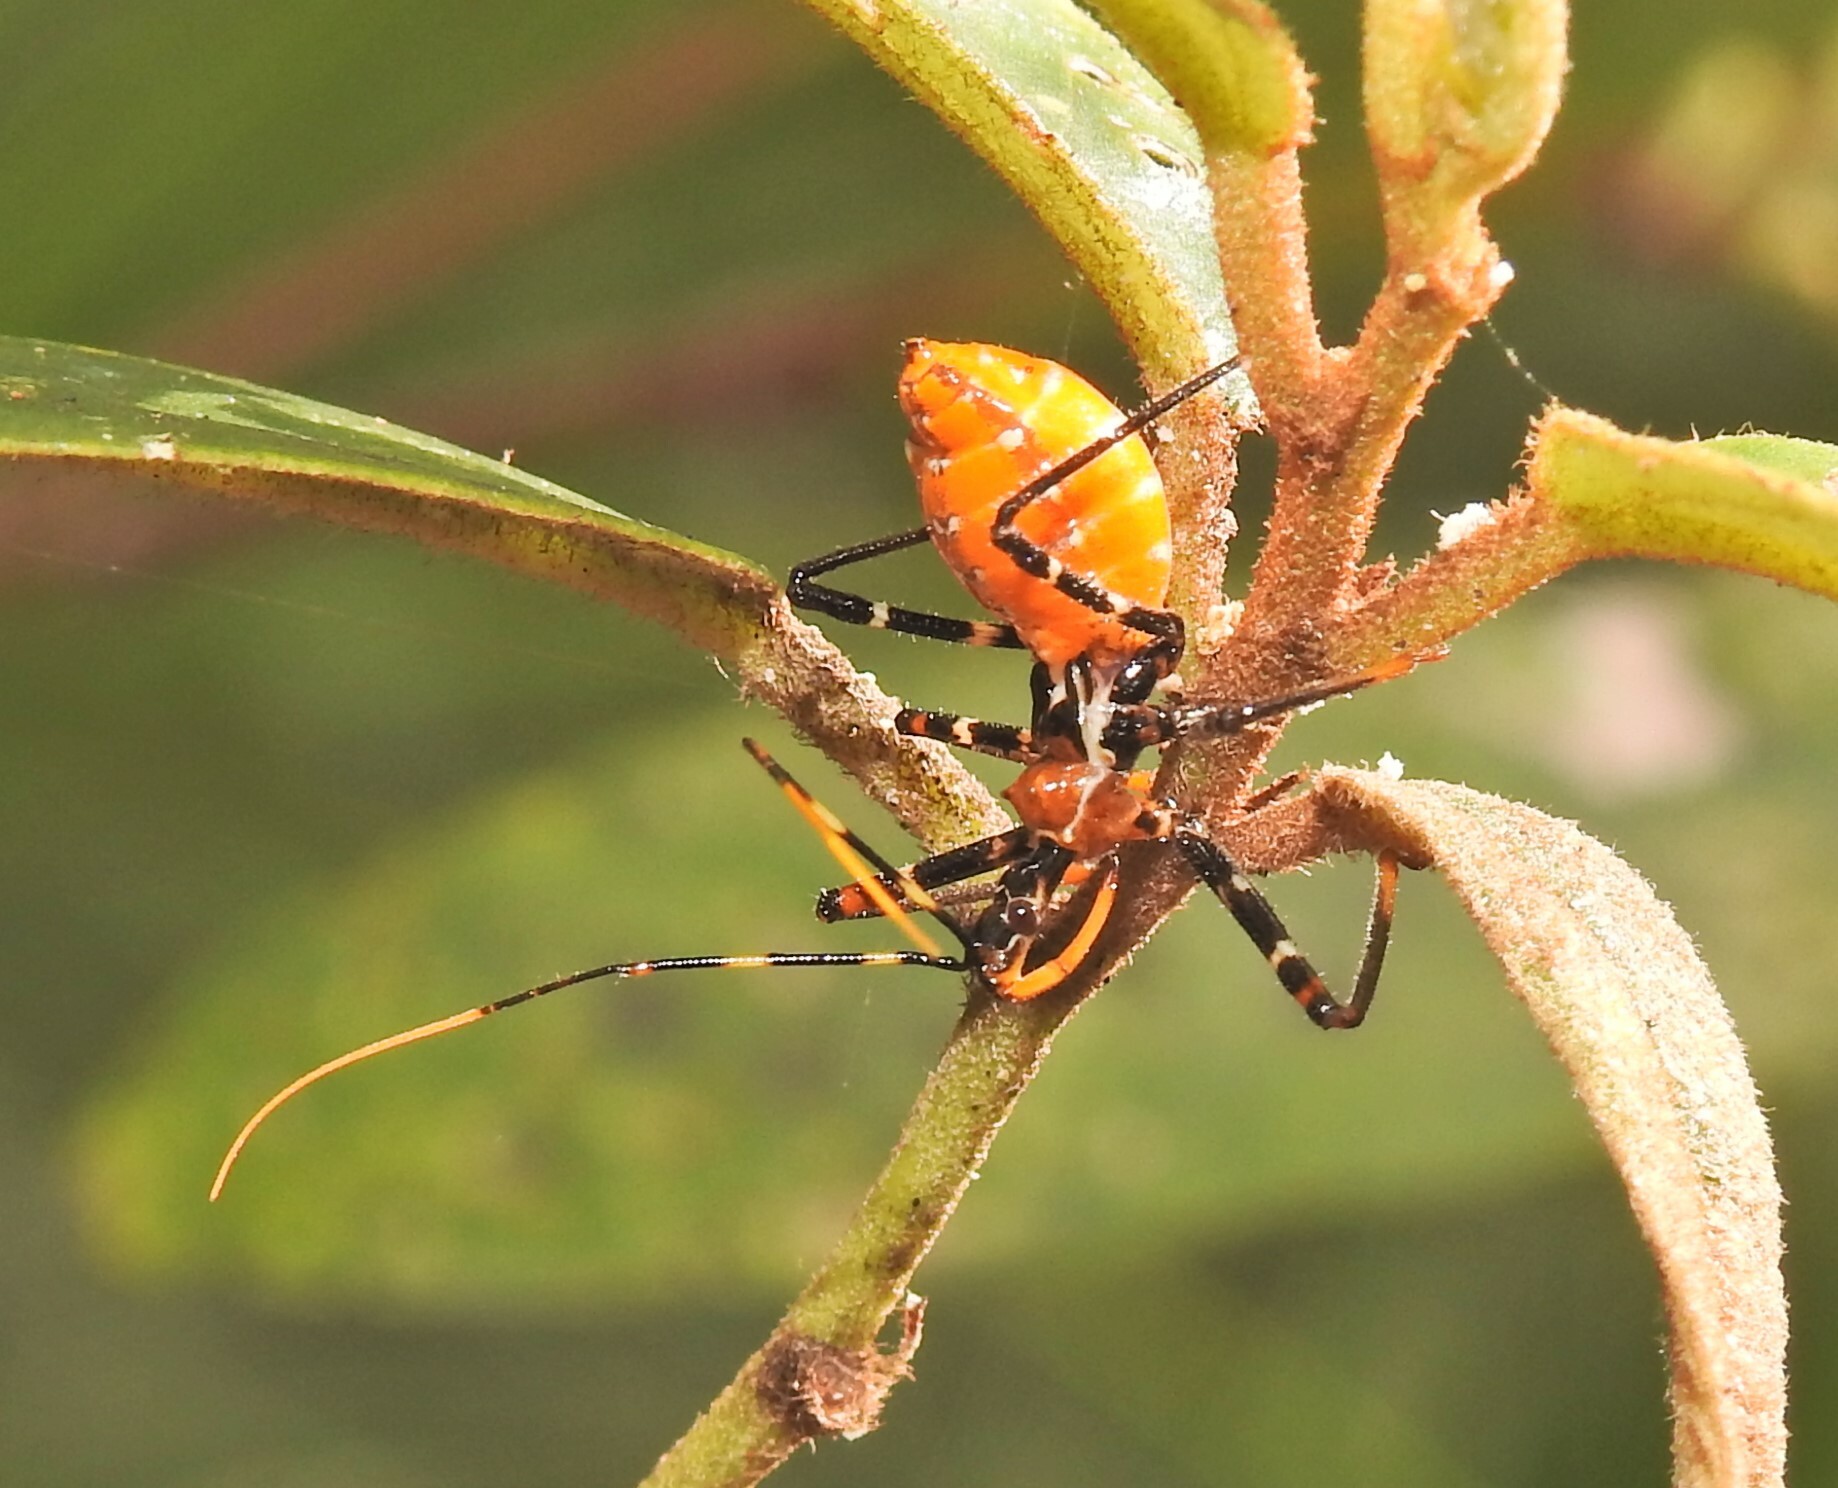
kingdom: Animalia
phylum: Arthropoda
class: Insecta
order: Hemiptera
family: Reduviidae
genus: Pristhesancus
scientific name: Pristhesancus plagipennis
